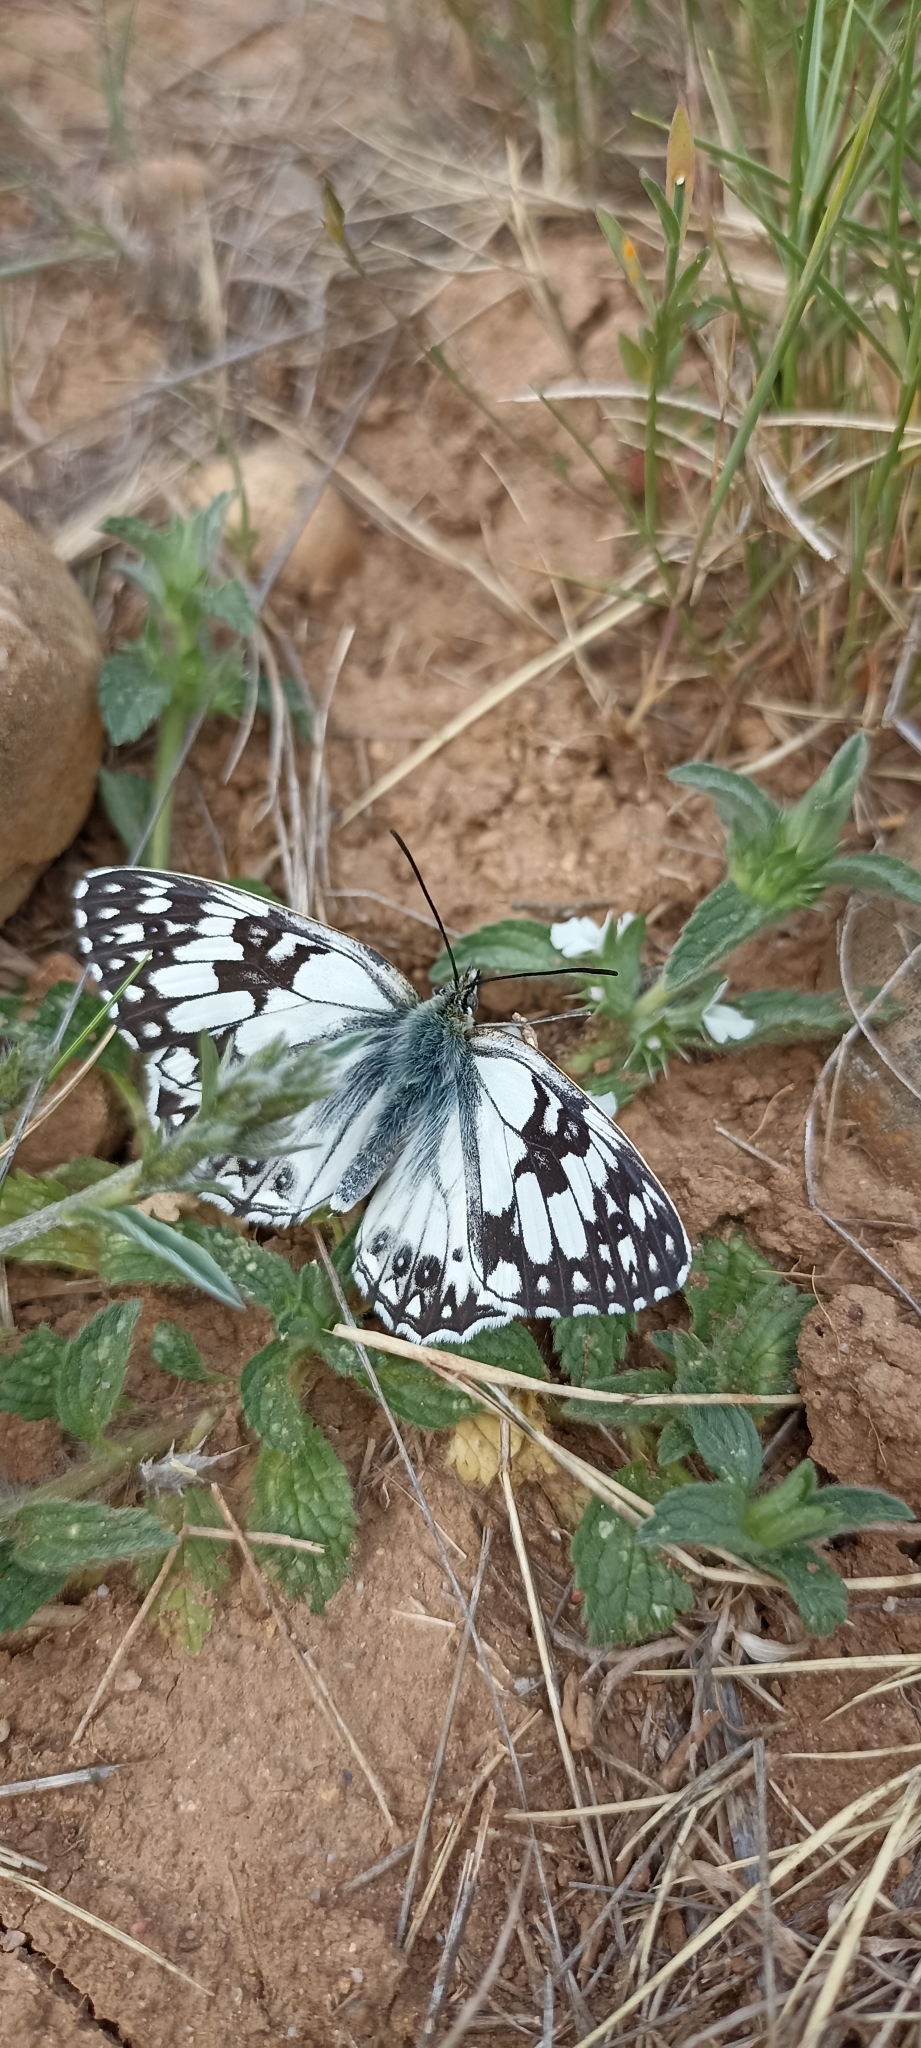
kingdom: Animalia
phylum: Arthropoda
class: Insecta
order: Lepidoptera
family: Nymphalidae
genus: Melanargia
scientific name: Melanargia occitanica
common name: Western marbled white
